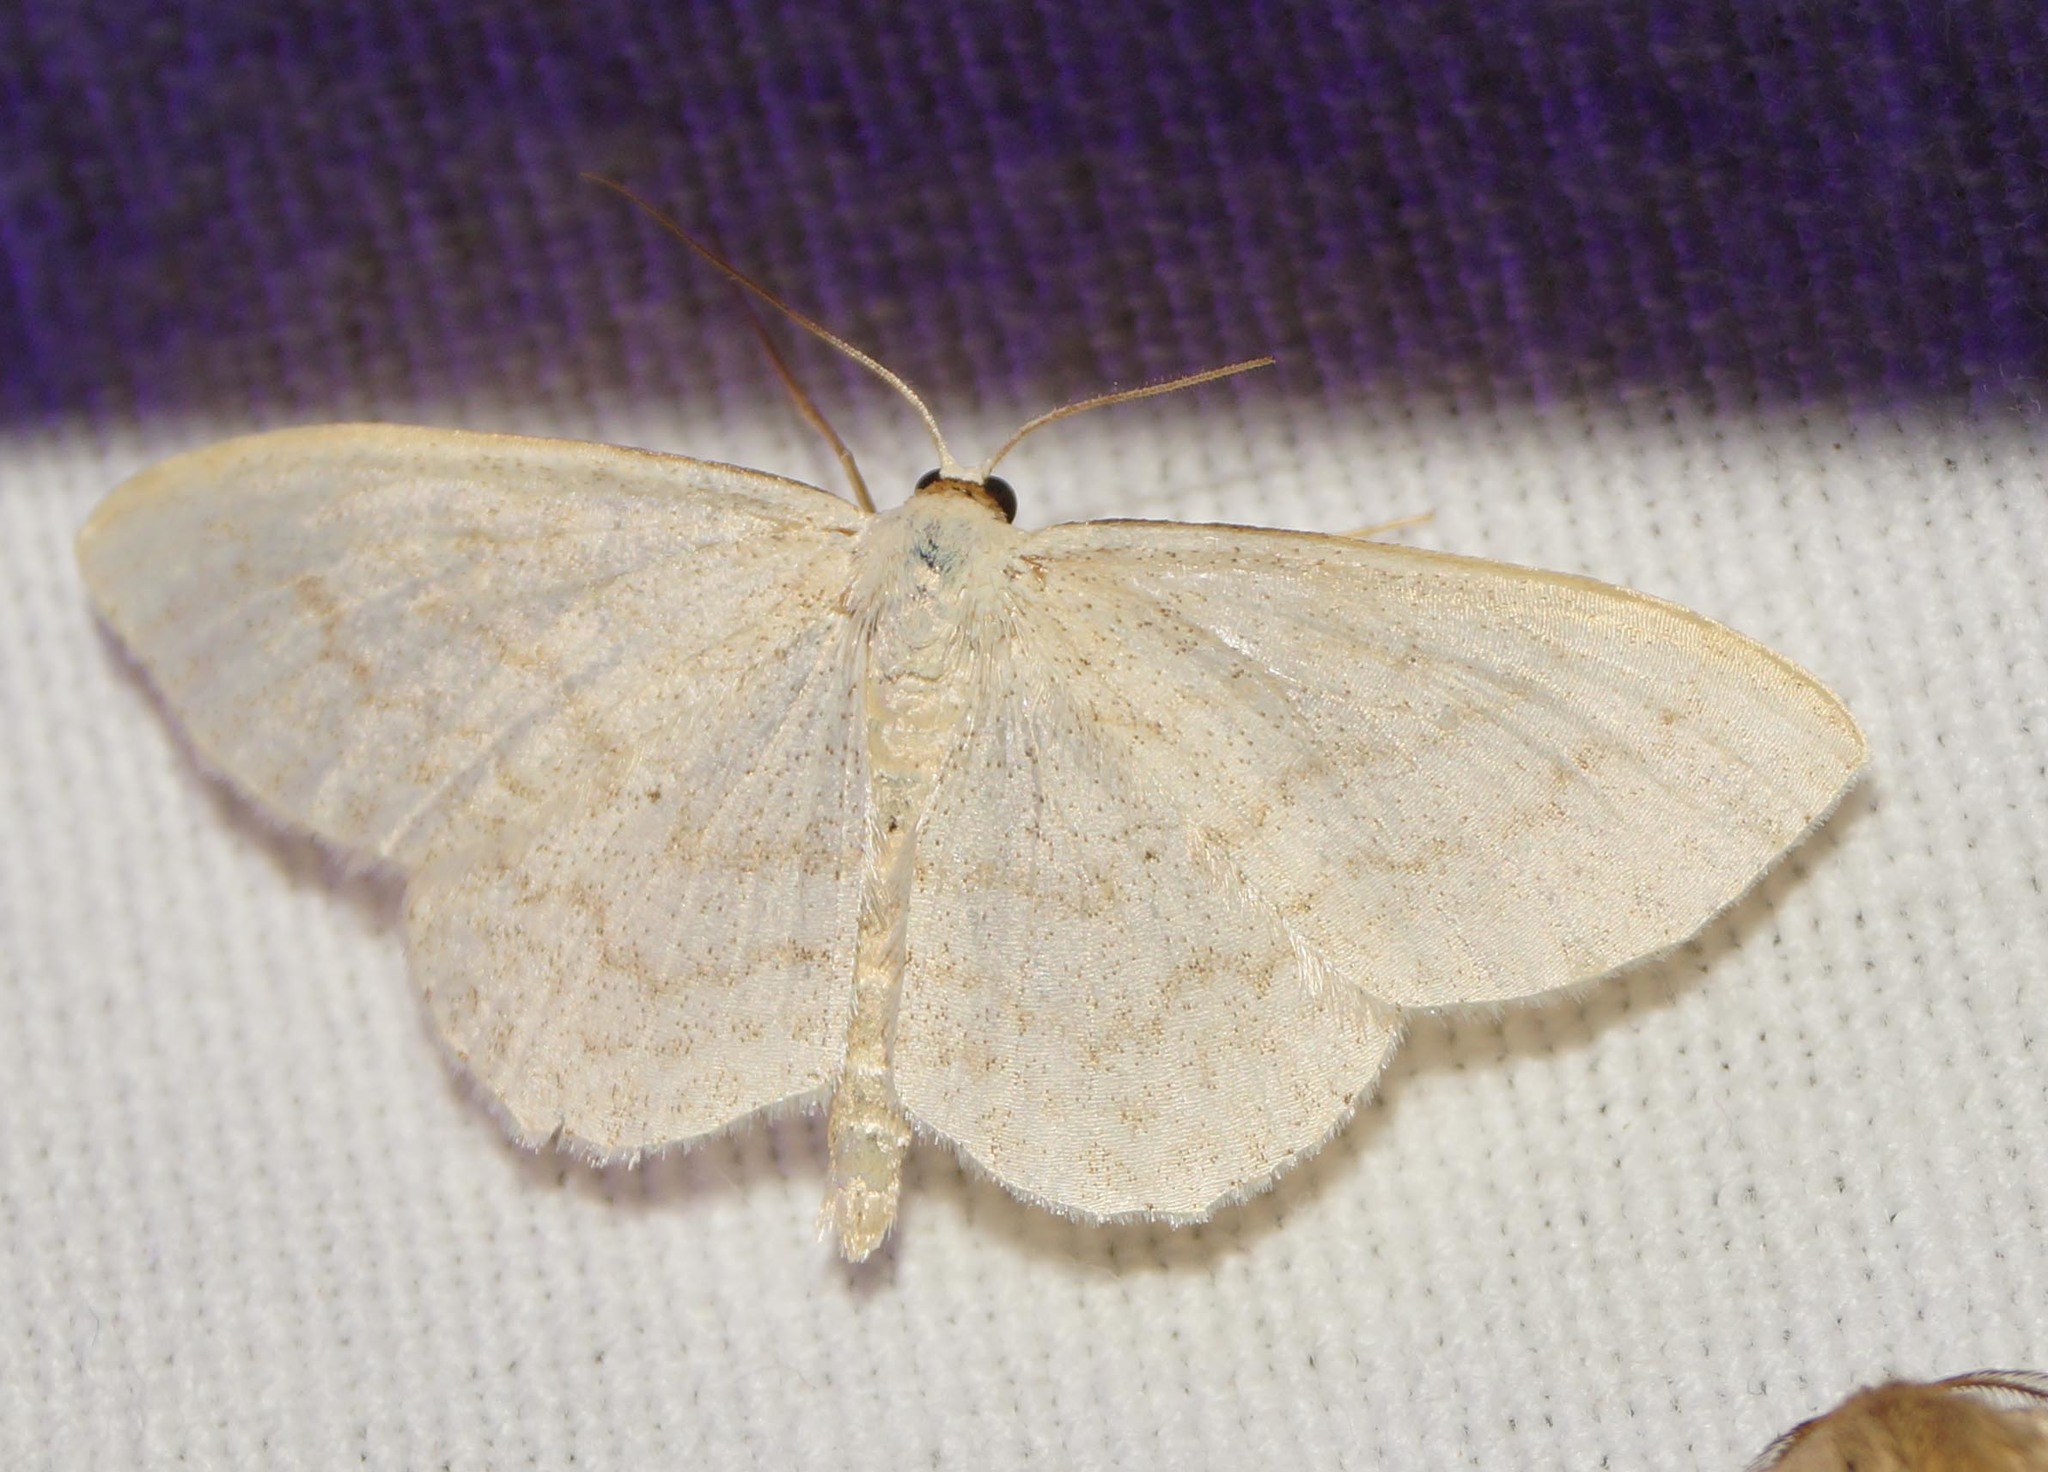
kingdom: Animalia
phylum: Arthropoda
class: Insecta
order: Lepidoptera
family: Geometridae
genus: Scopula
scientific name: Scopula floslactata
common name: Cream wave
